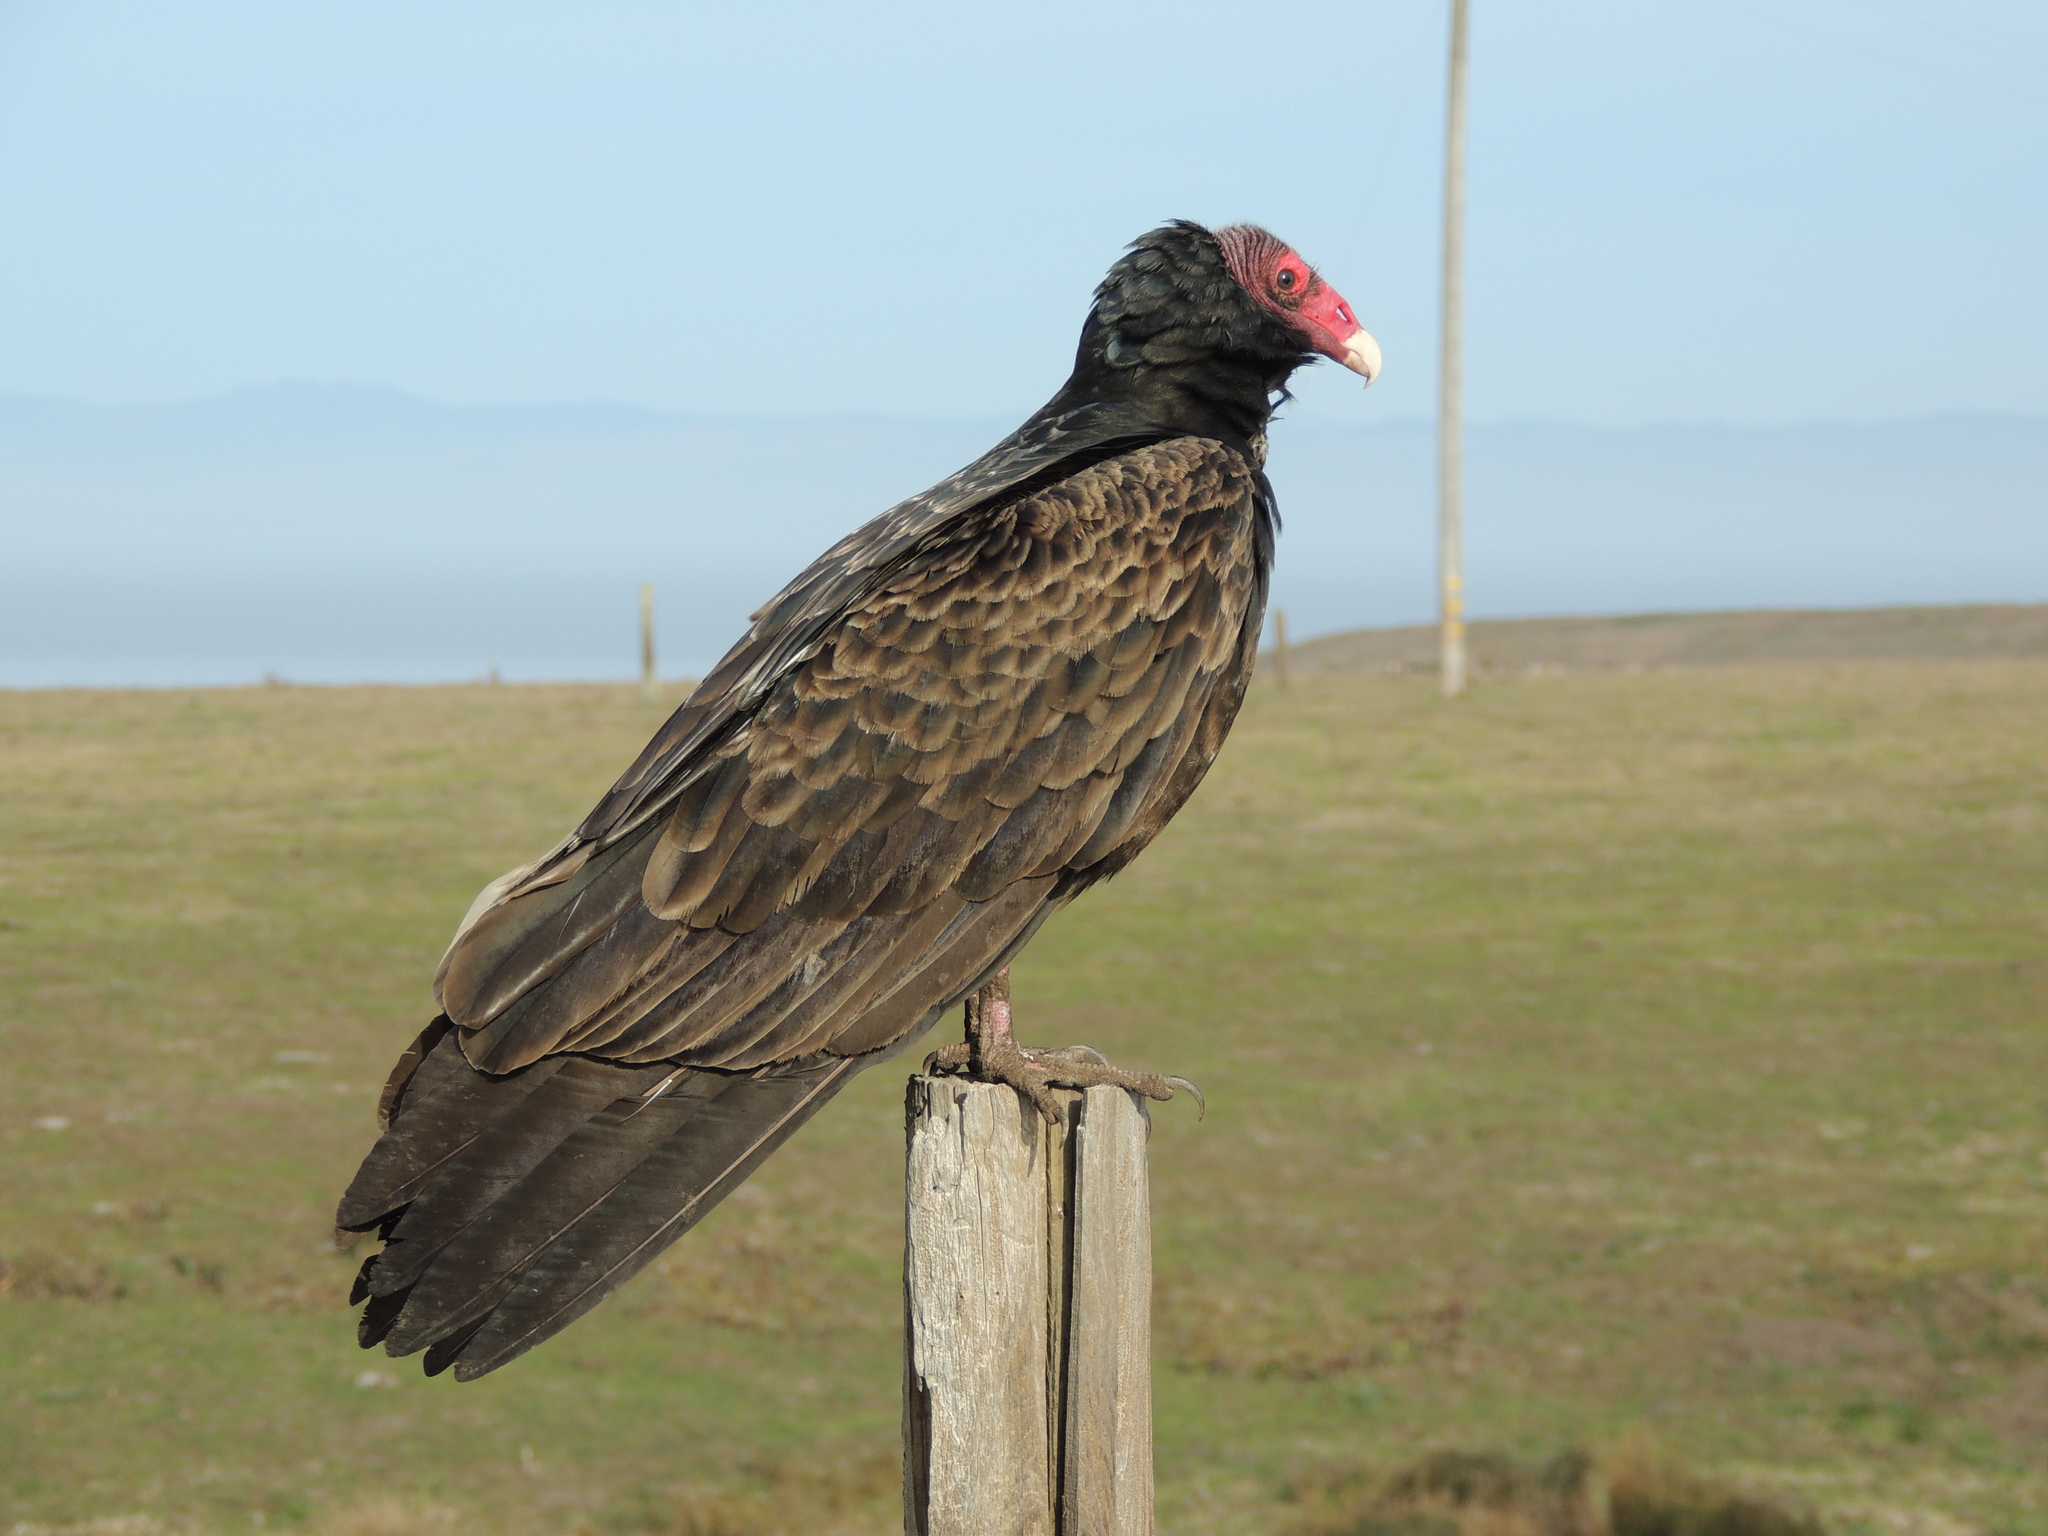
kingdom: Animalia
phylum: Chordata
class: Aves
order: Accipitriformes
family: Cathartidae
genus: Cathartes
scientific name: Cathartes aura
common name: Turkey vulture
